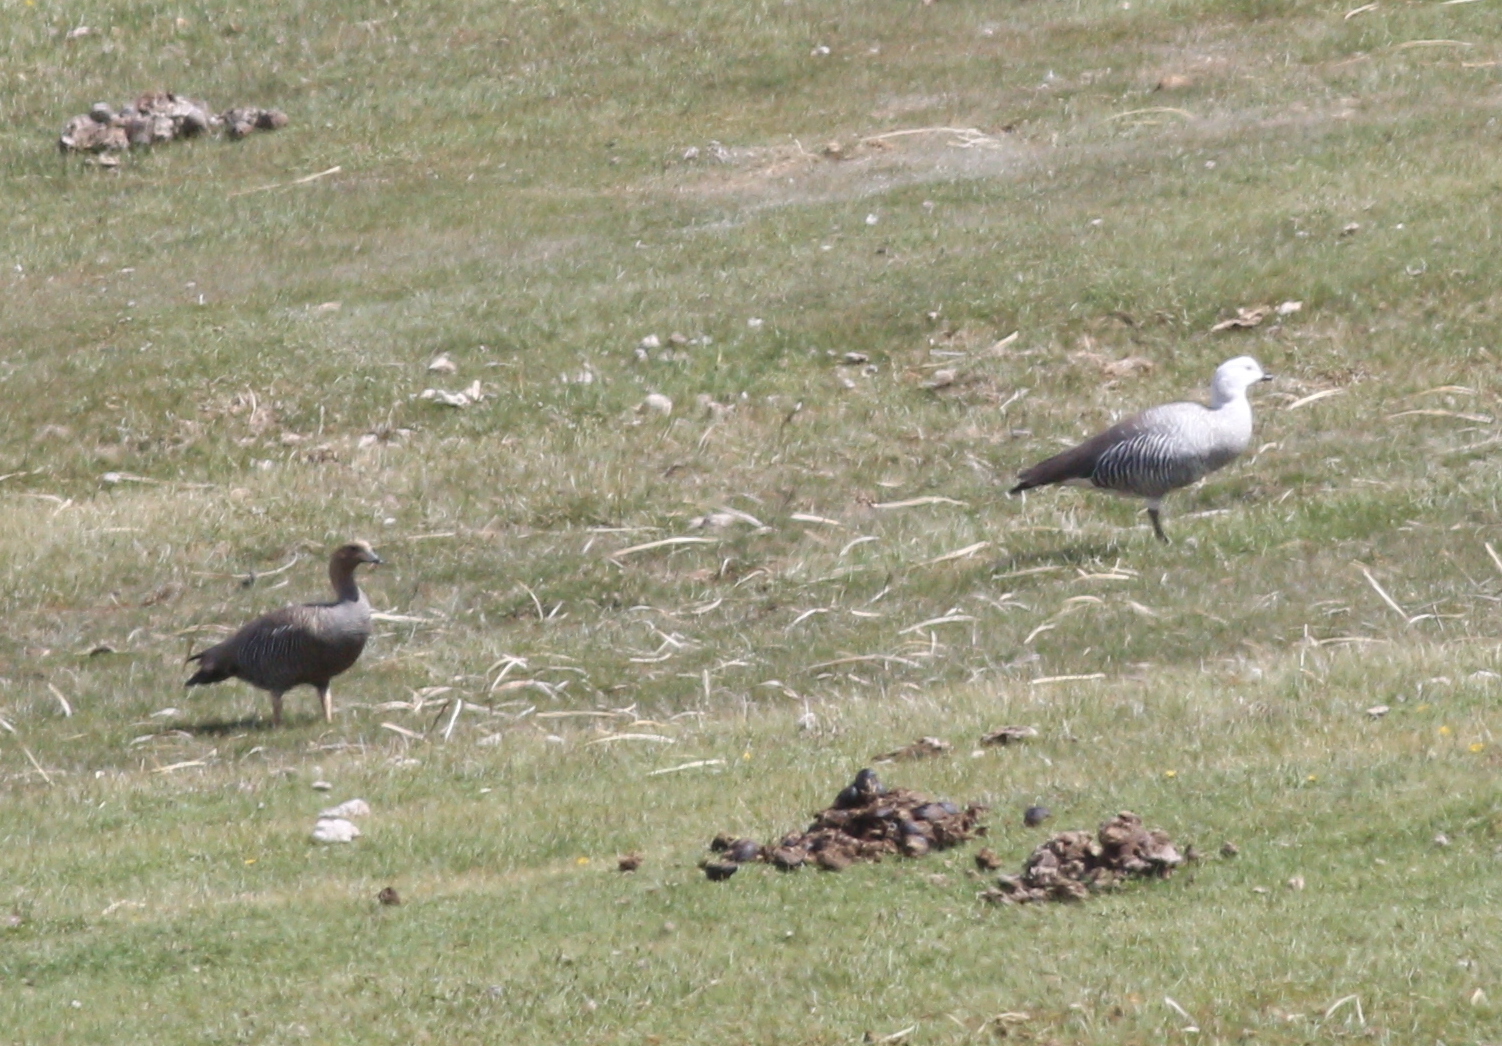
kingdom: Animalia
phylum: Chordata
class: Aves
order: Anseriformes
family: Anatidae
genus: Chloephaga
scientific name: Chloephaga picta
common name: Upland goose
